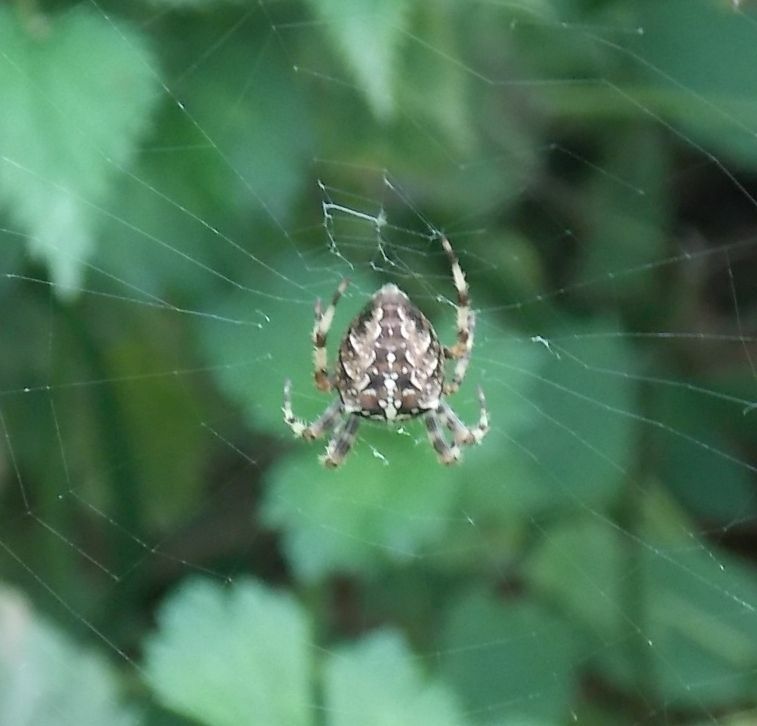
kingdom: Animalia
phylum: Arthropoda
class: Arachnida
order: Araneae
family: Araneidae
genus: Araneus
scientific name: Araneus diadematus
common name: Cross orbweaver
